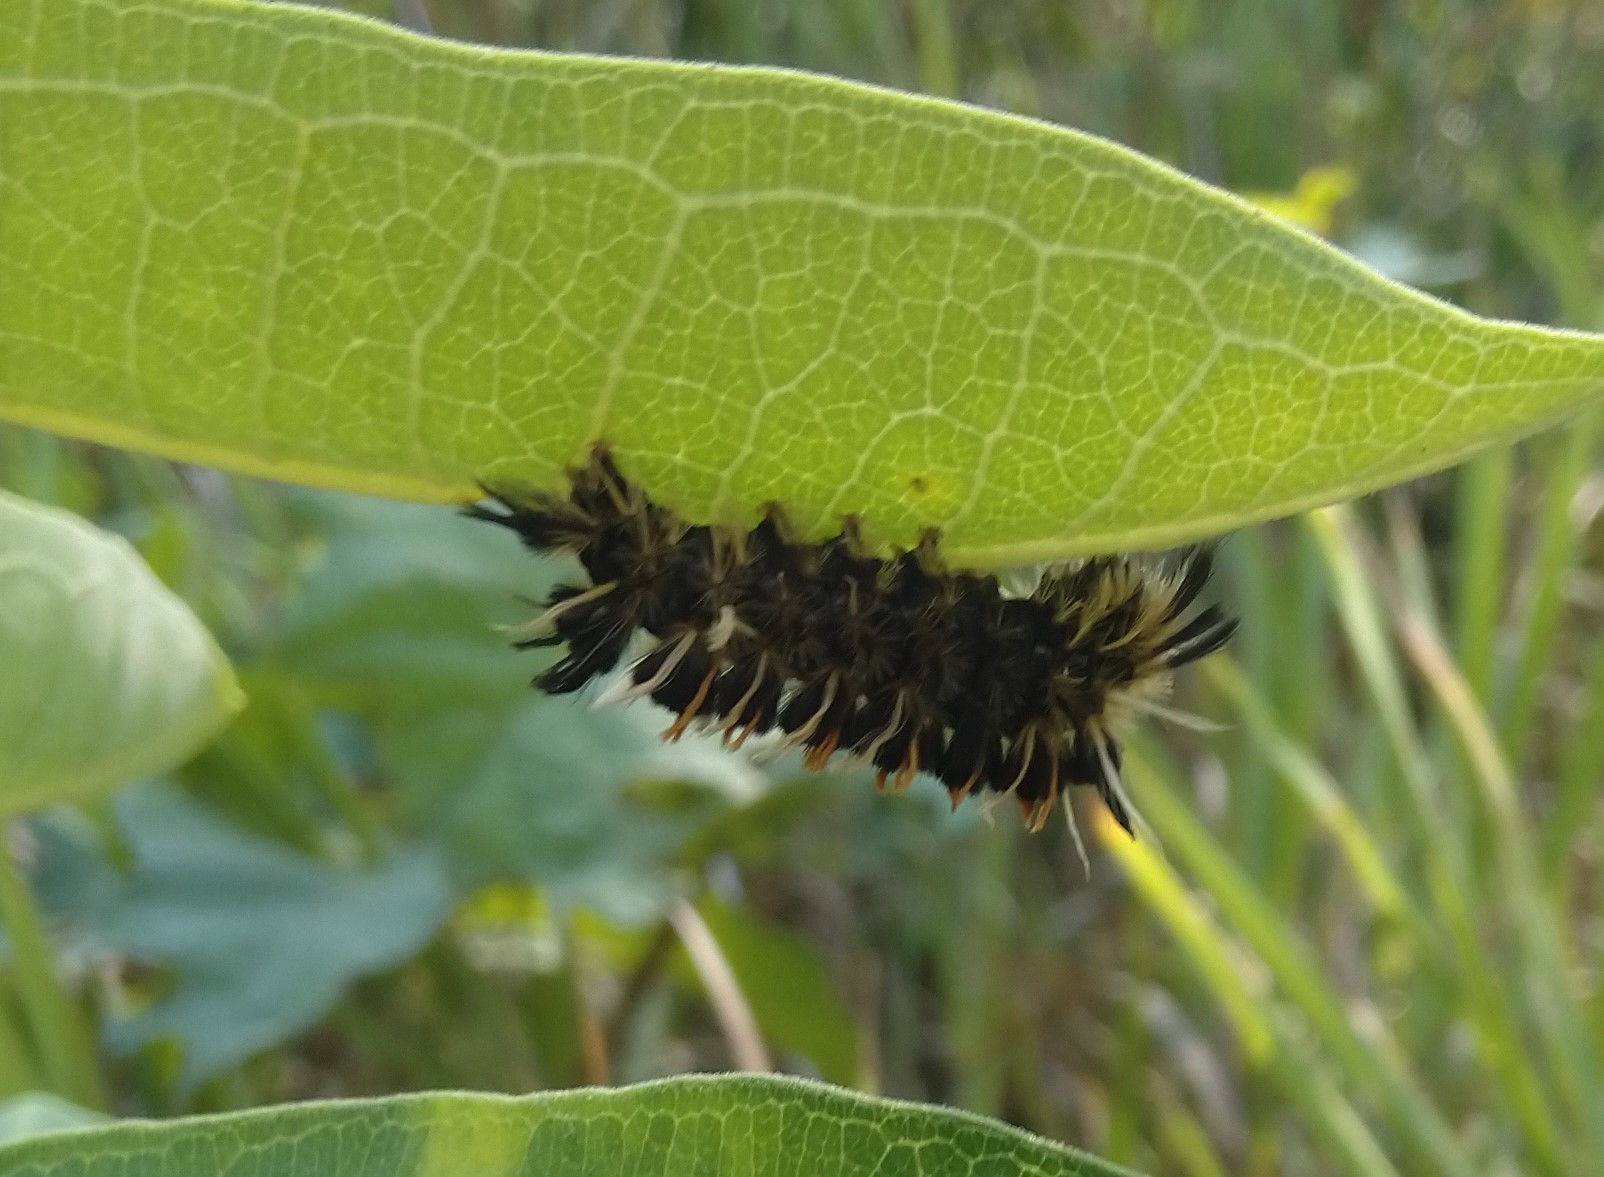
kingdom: Animalia
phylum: Arthropoda
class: Insecta
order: Lepidoptera
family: Erebidae
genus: Euchaetes
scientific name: Euchaetes egle
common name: Milkweed tussock moth
